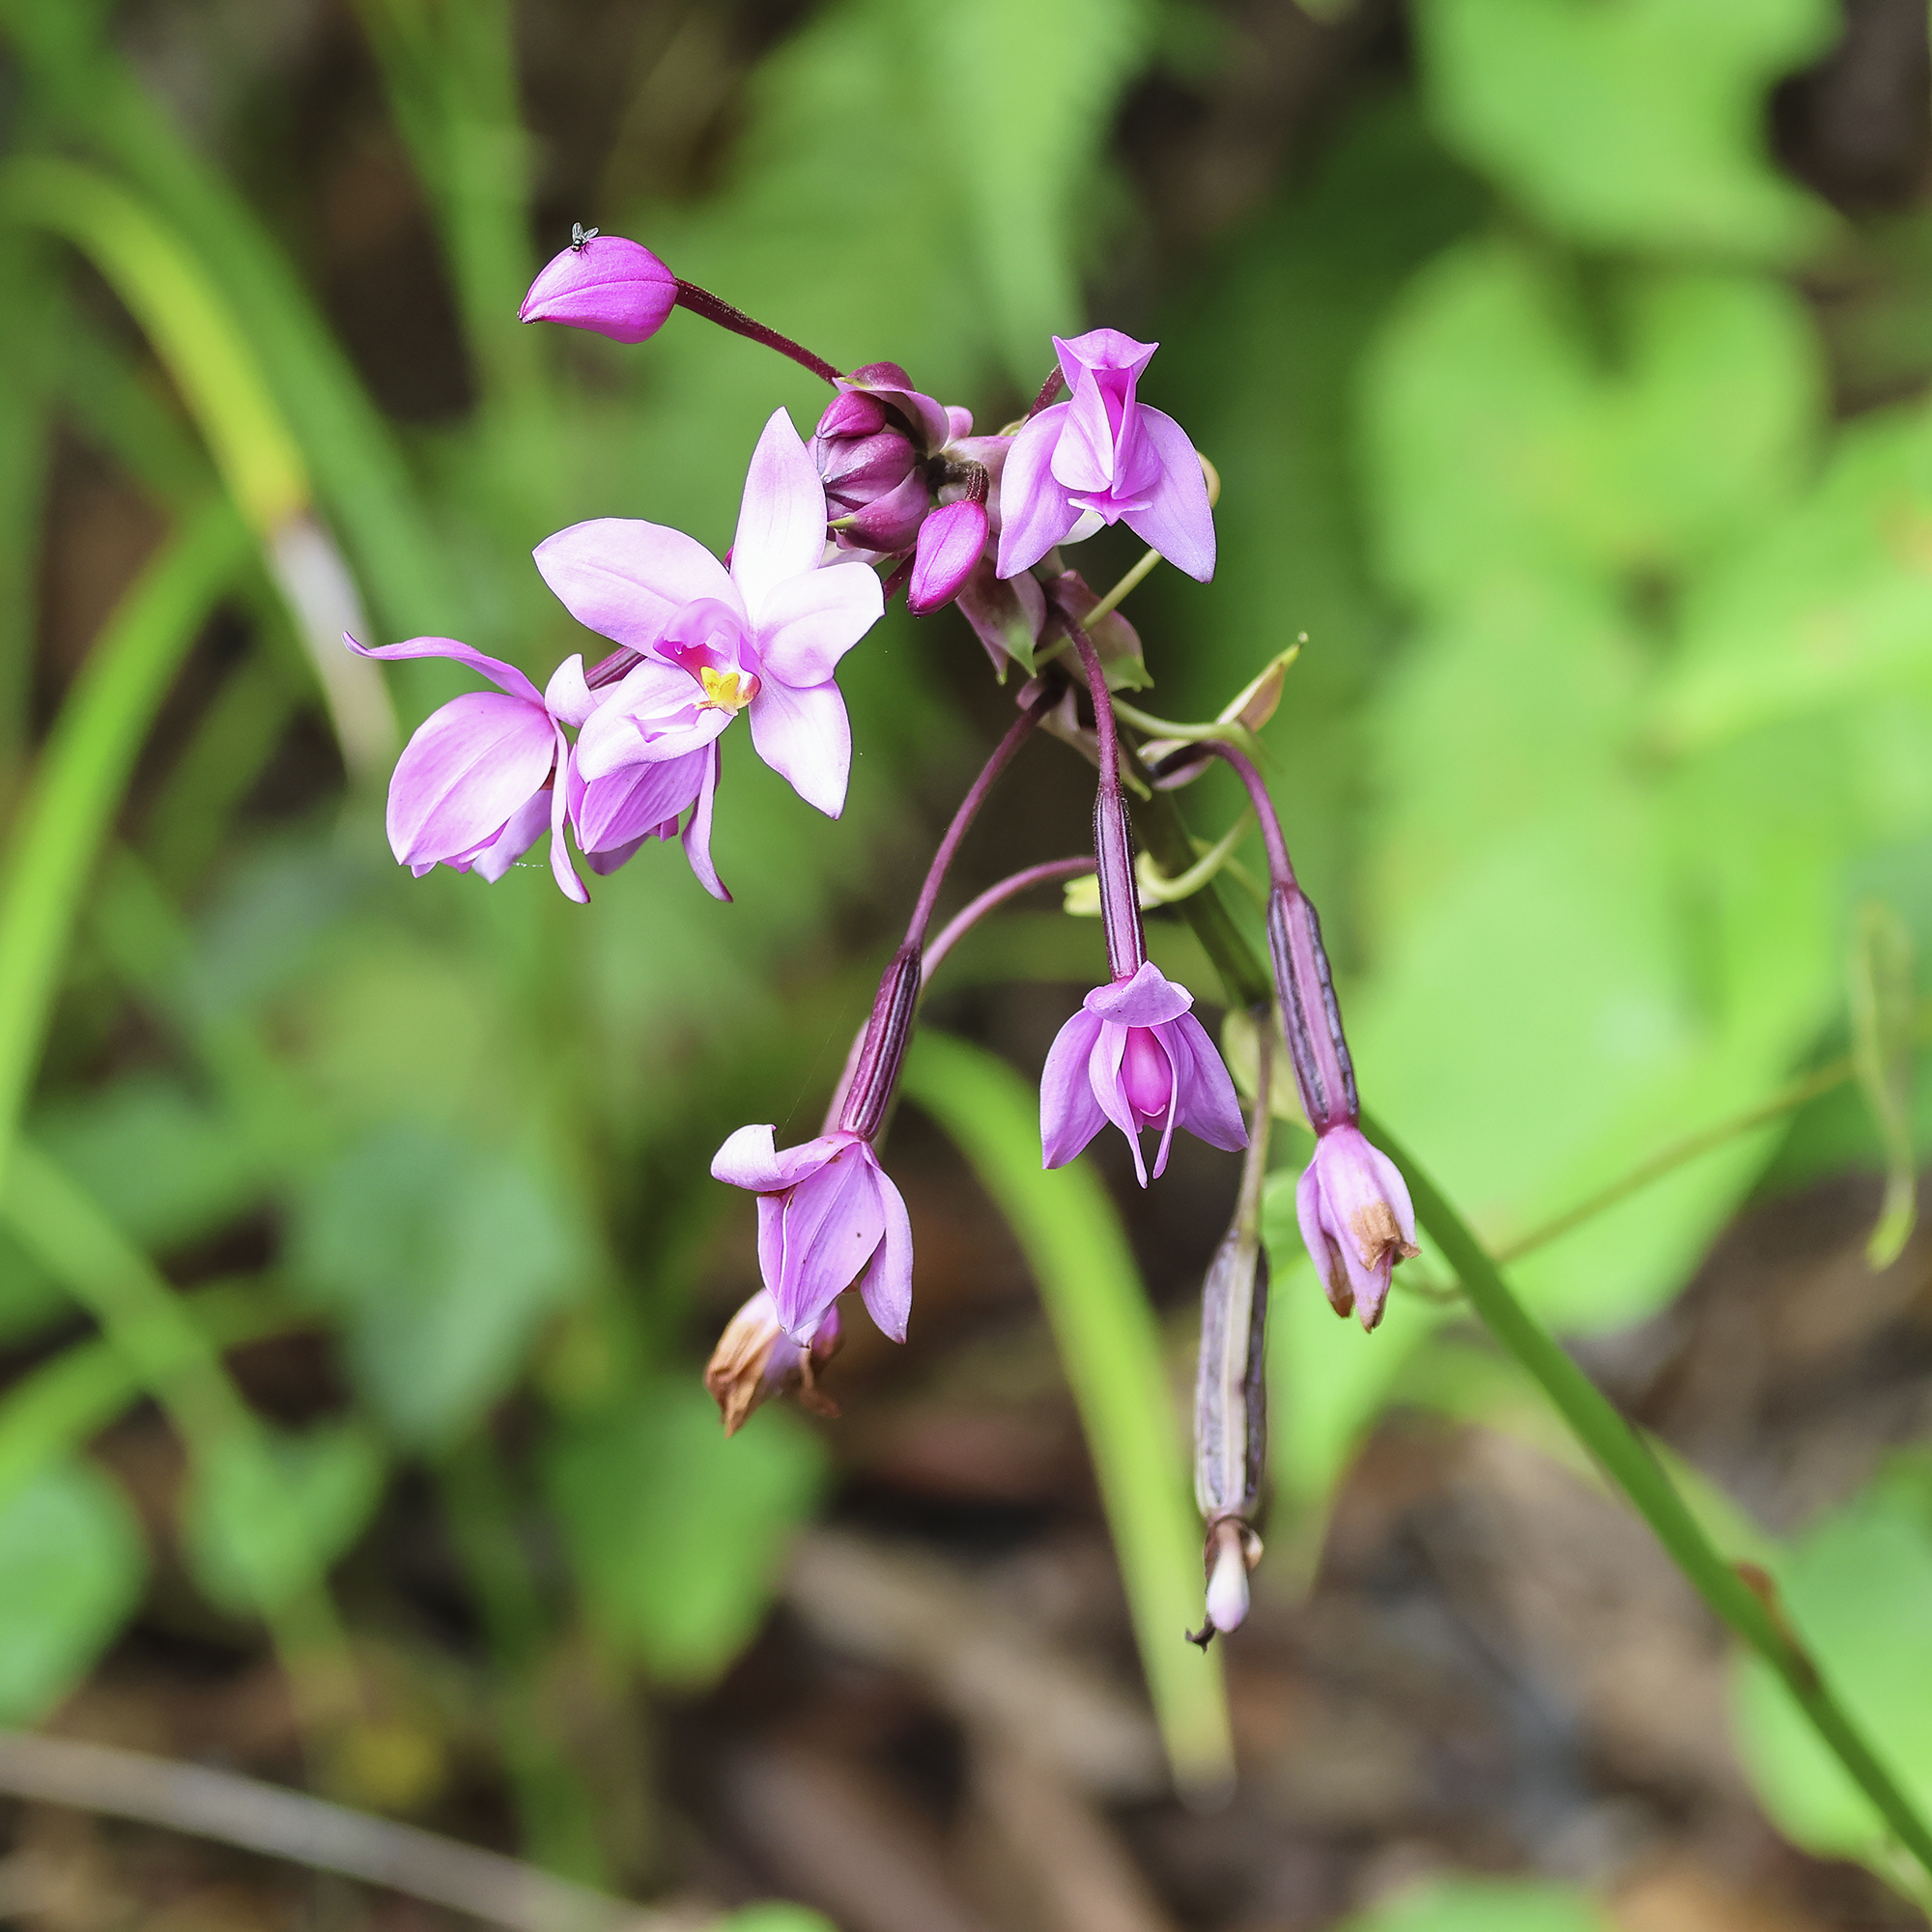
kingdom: Plantae
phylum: Tracheophyta
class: Liliopsida
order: Asparagales
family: Orchidaceae
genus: Spathoglottis
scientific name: Spathoglottis plicata
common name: Philippine ground orchid
